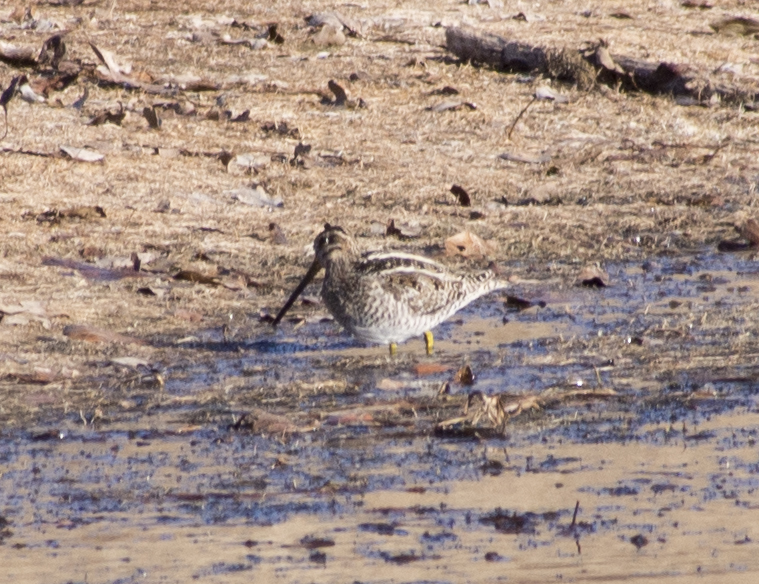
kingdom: Animalia
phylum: Chordata
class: Aves
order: Charadriiformes
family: Scolopacidae
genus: Gallinago
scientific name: Gallinago delicata
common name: Wilson's snipe
